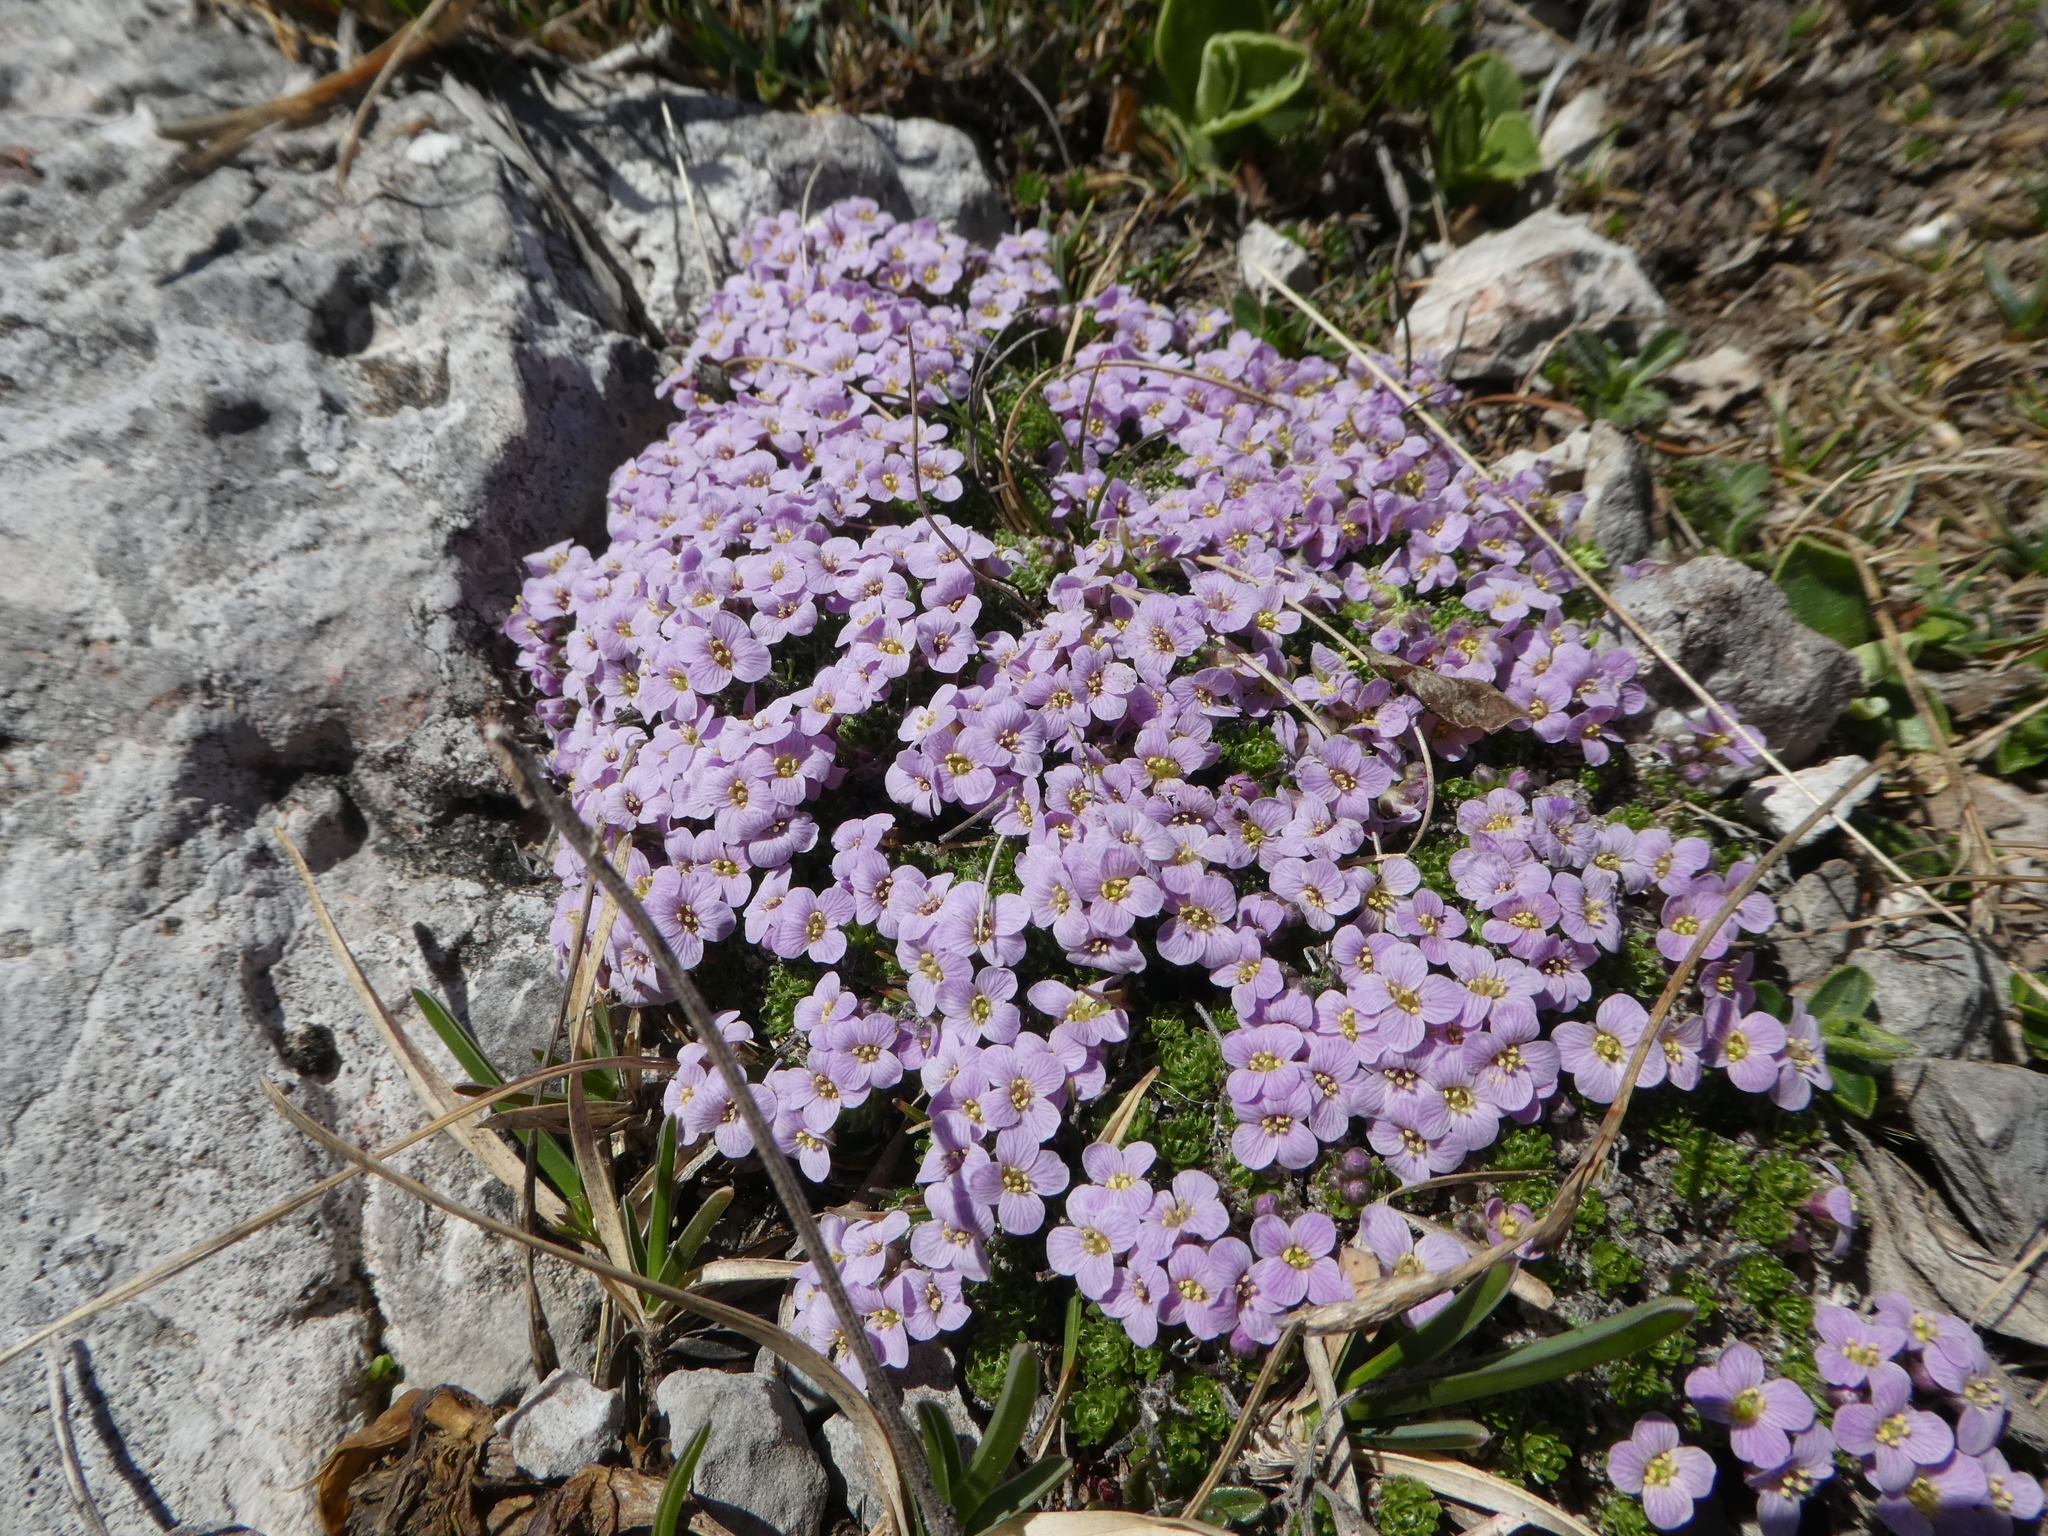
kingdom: Plantae
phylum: Tracheophyta
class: Magnoliopsida
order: Brassicales
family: Brassicaceae
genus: Petrocallis
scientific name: Petrocallis pyrenaica
